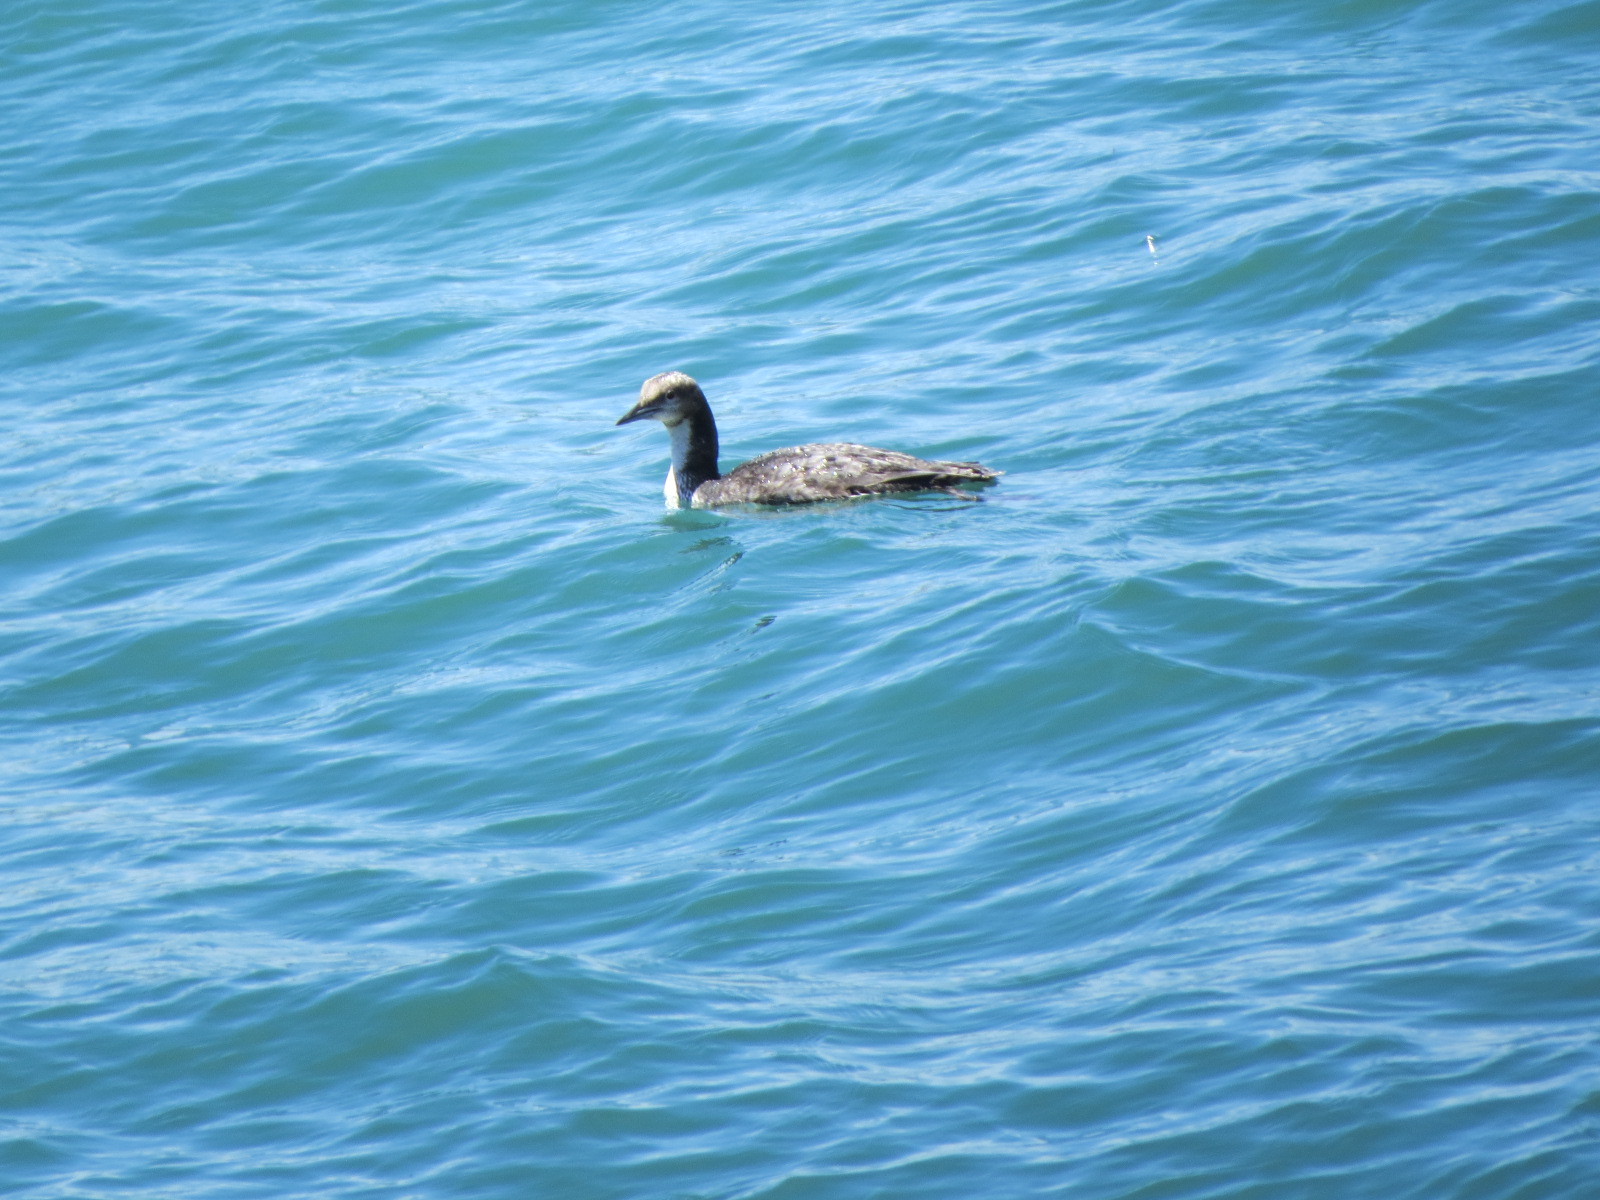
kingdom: Animalia
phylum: Chordata
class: Aves
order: Gaviiformes
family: Gaviidae
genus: Gavia
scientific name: Gavia pacifica
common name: Pacific loon
